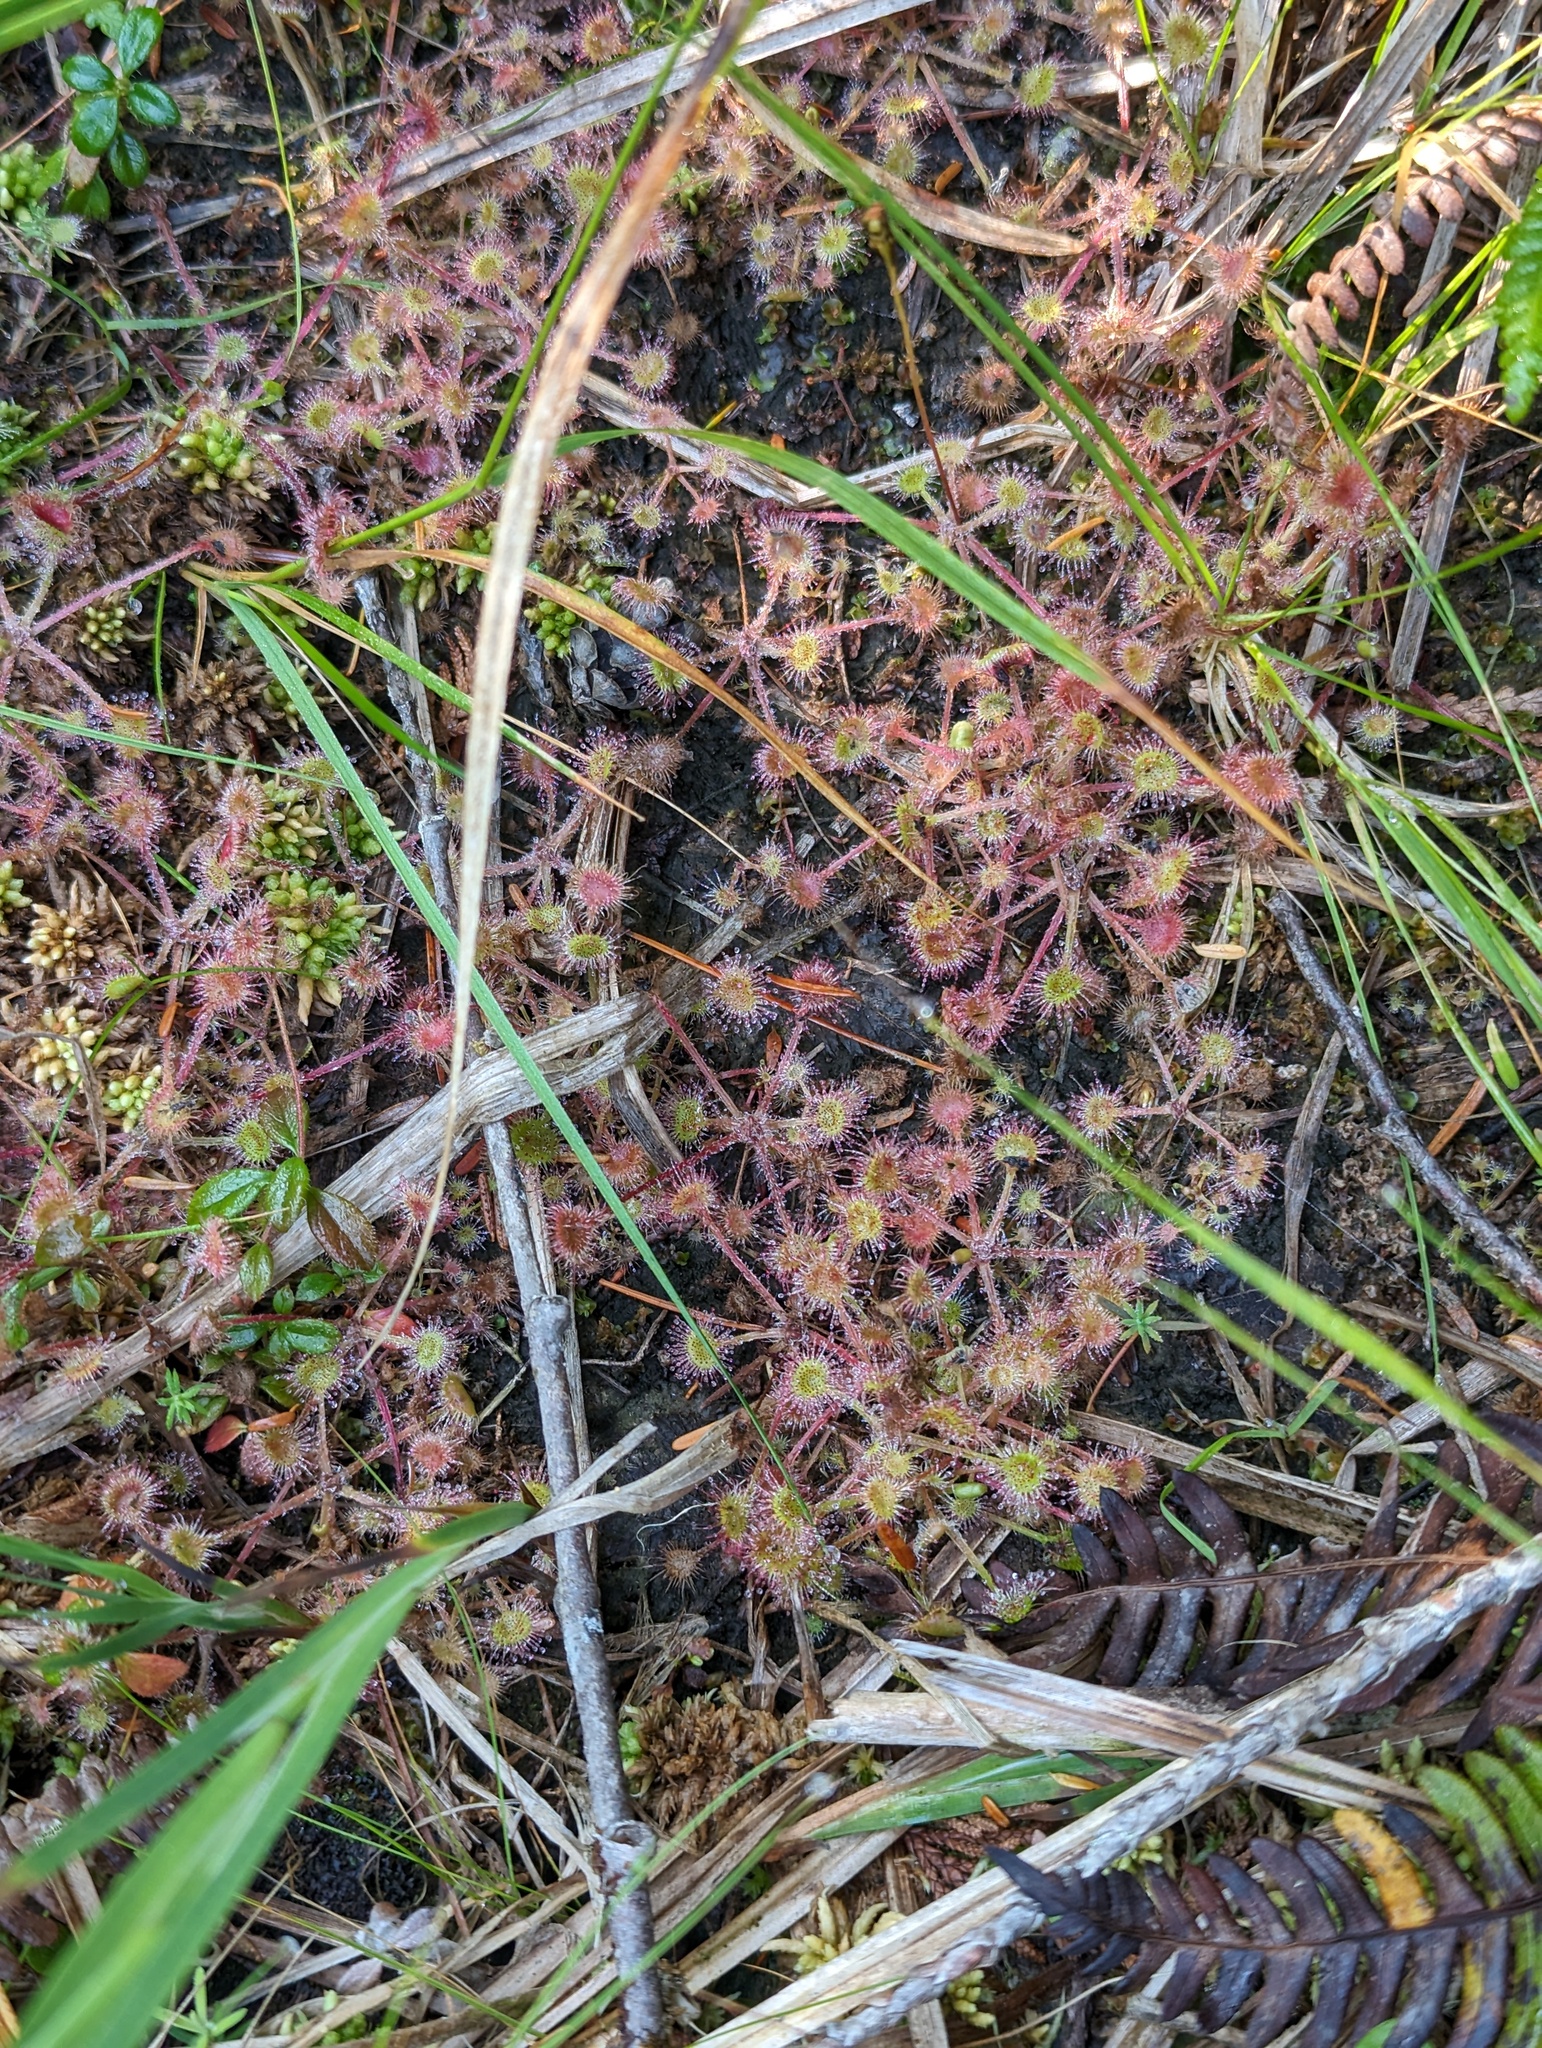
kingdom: Plantae
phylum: Tracheophyta
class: Magnoliopsida
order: Caryophyllales
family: Droseraceae
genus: Drosera
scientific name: Drosera rotundifolia
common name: Round-leaved sundew
